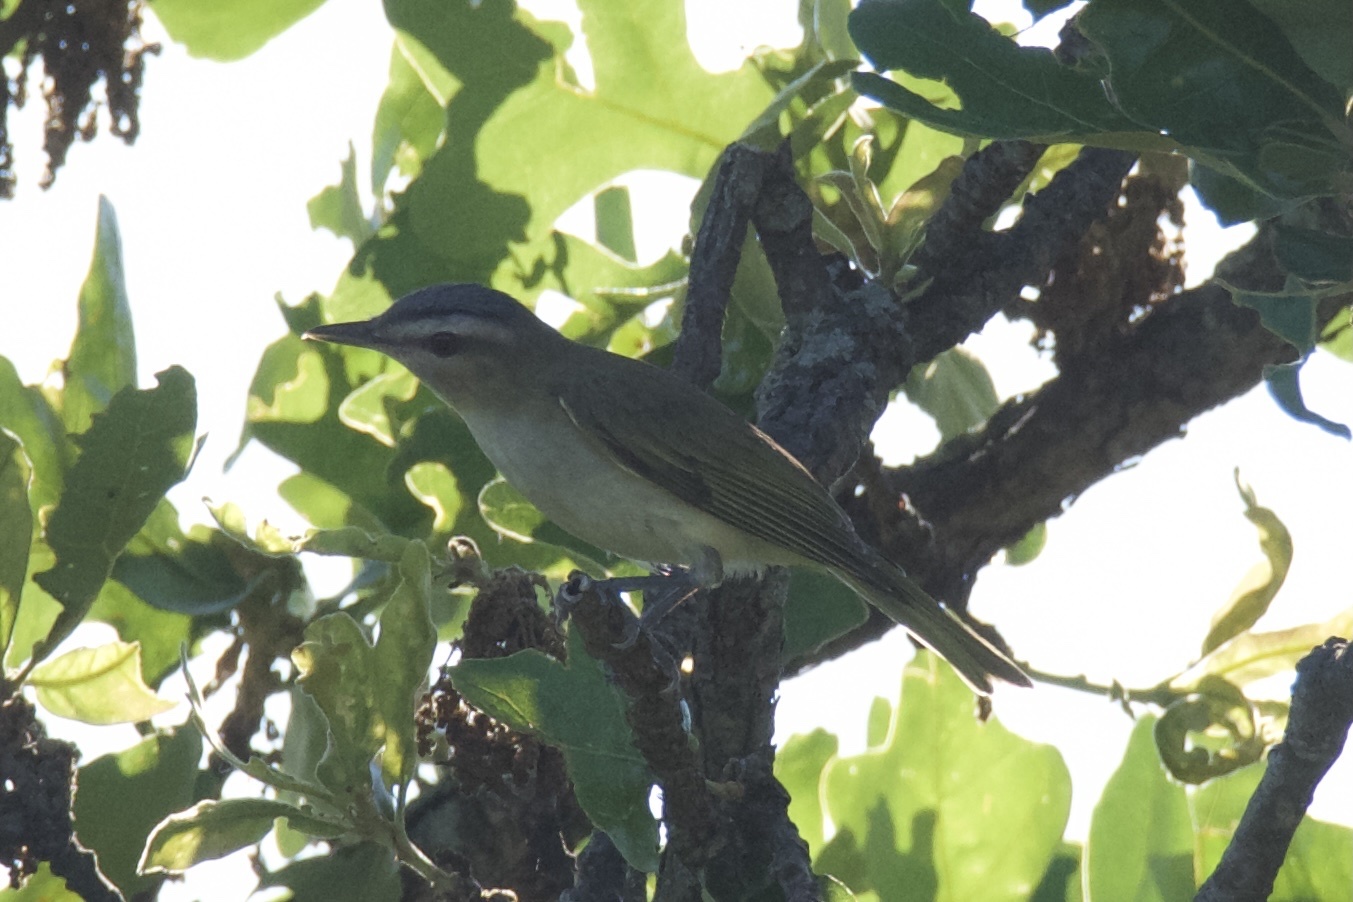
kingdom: Animalia
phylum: Chordata
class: Aves
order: Passeriformes
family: Vireonidae
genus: Vireo
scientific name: Vireo olivaceus
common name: Red-eyed vireo
